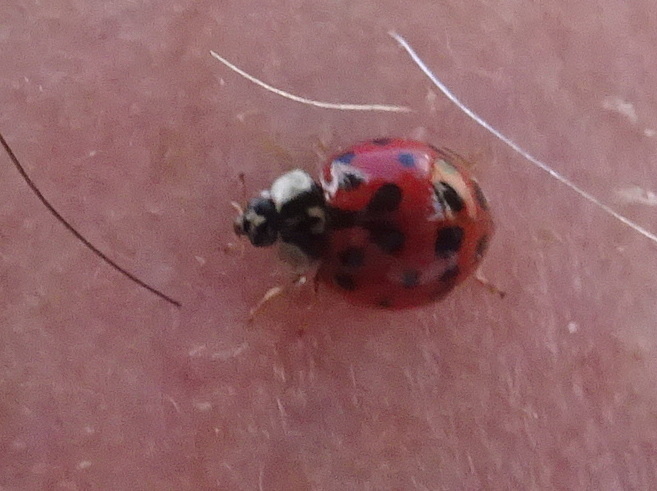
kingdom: Animalia
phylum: Arthropoda
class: Insecta
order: Coleoptera
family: Coccinellidae
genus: Harmonia
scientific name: Harmonia axyridis
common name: Harlequin ladybird
